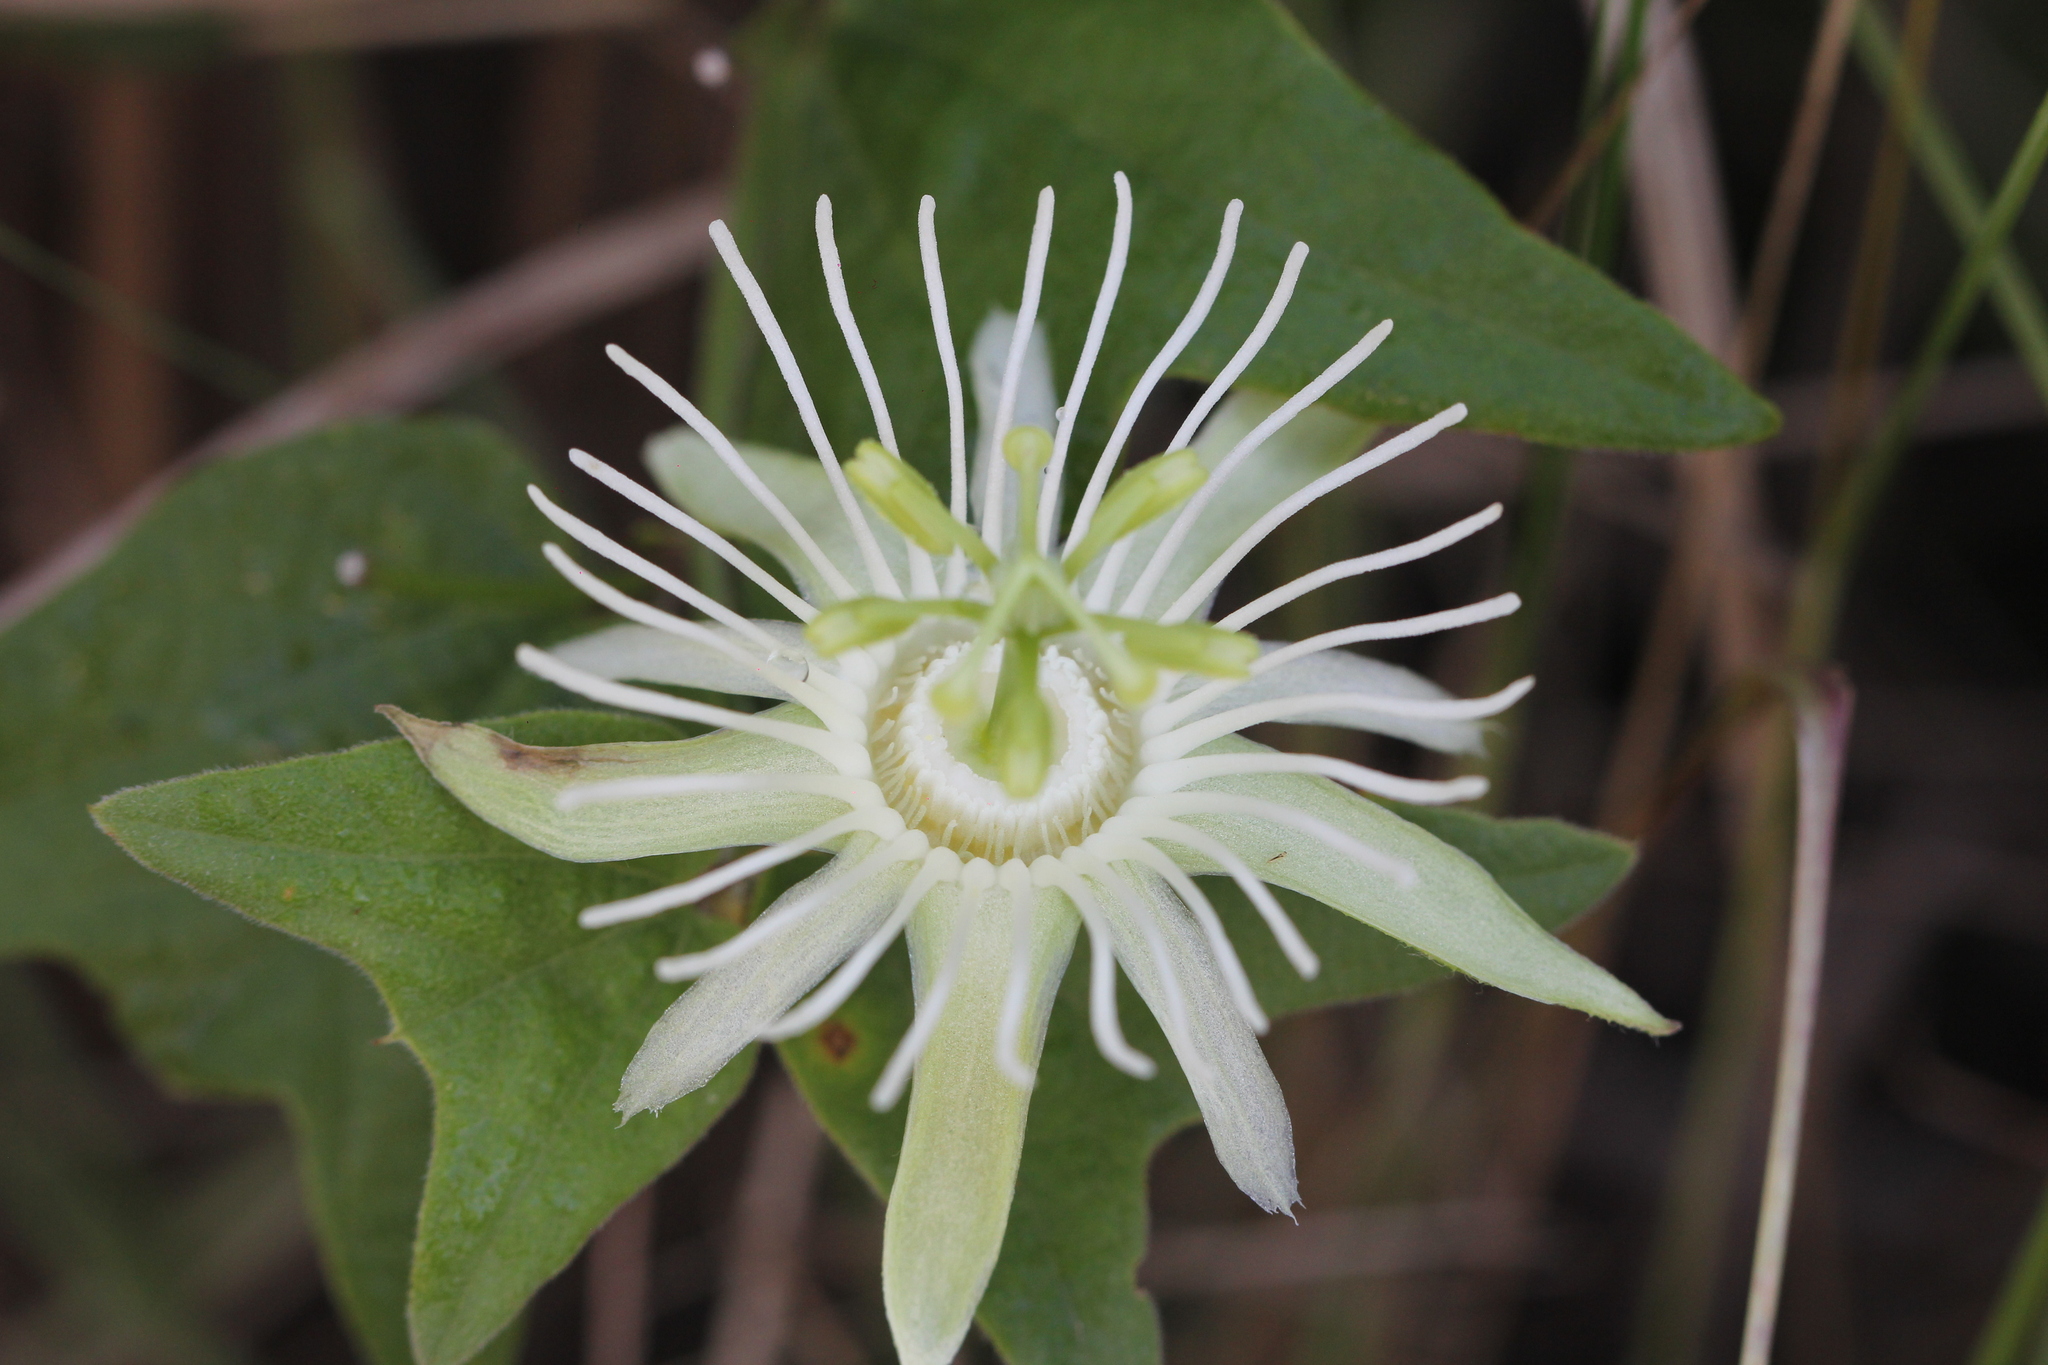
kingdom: Plantae
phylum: Tracheophyta
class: Magnoliopsida
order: Malpighiales
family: Passifloraceae
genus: Passiflora
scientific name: Passiflora capsularis
